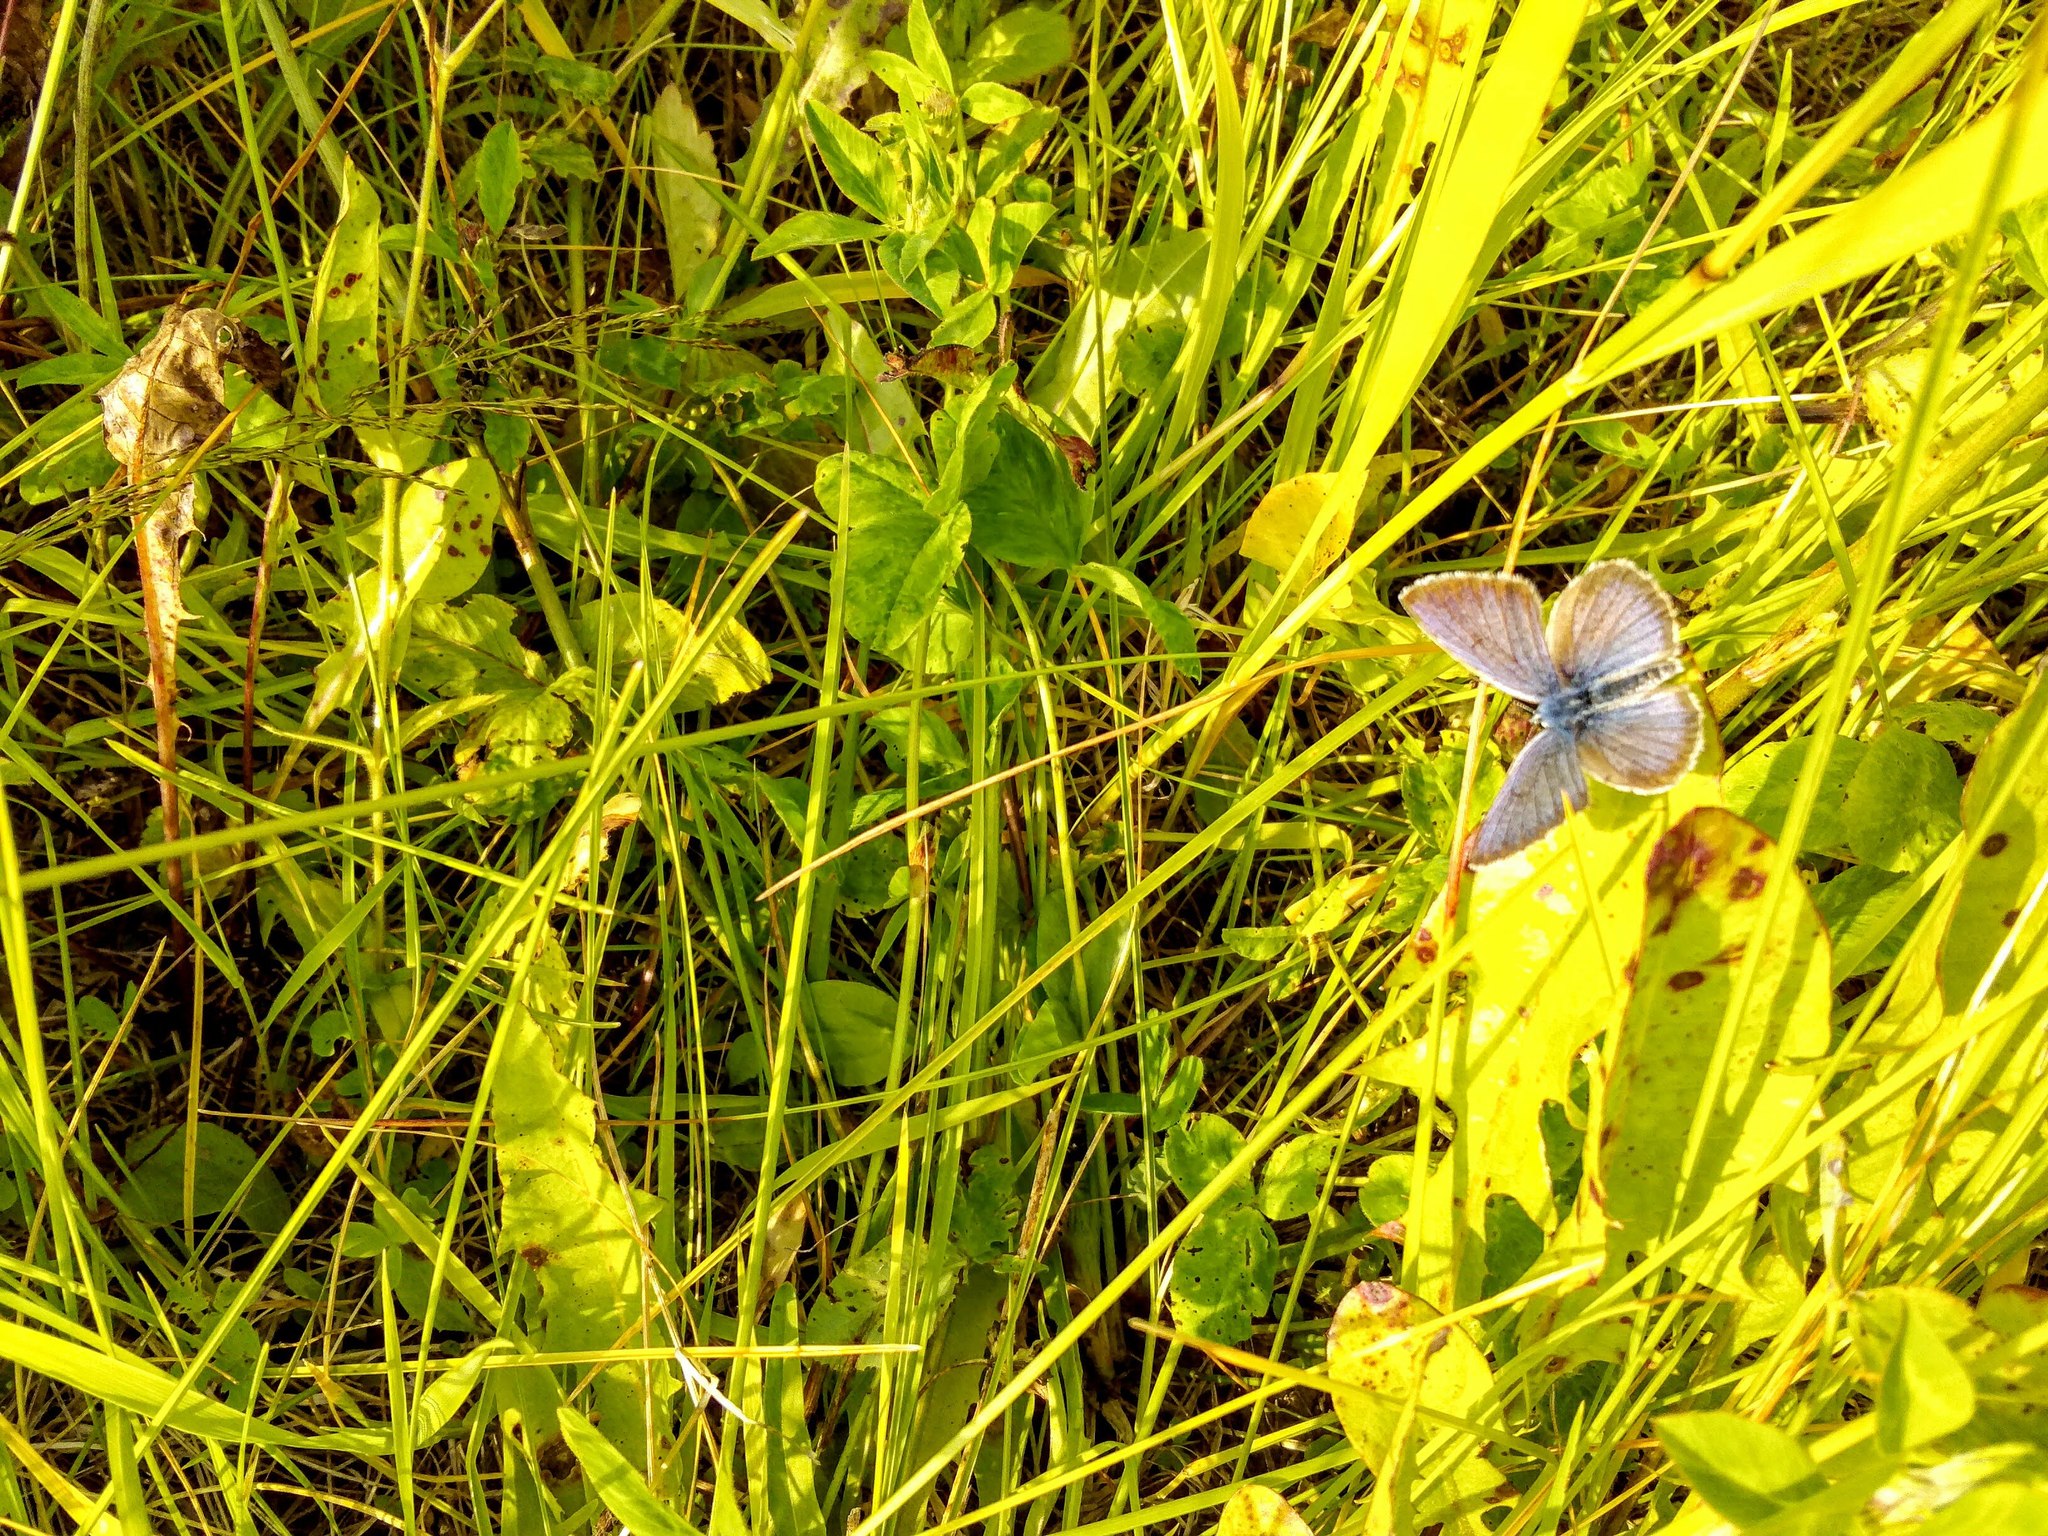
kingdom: Animalia
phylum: Arthropoda
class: Insecta
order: Lepidoptera
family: Lycaenidae
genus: Cyaniris
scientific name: Cyaniris semiargus
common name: Mazarine blue
